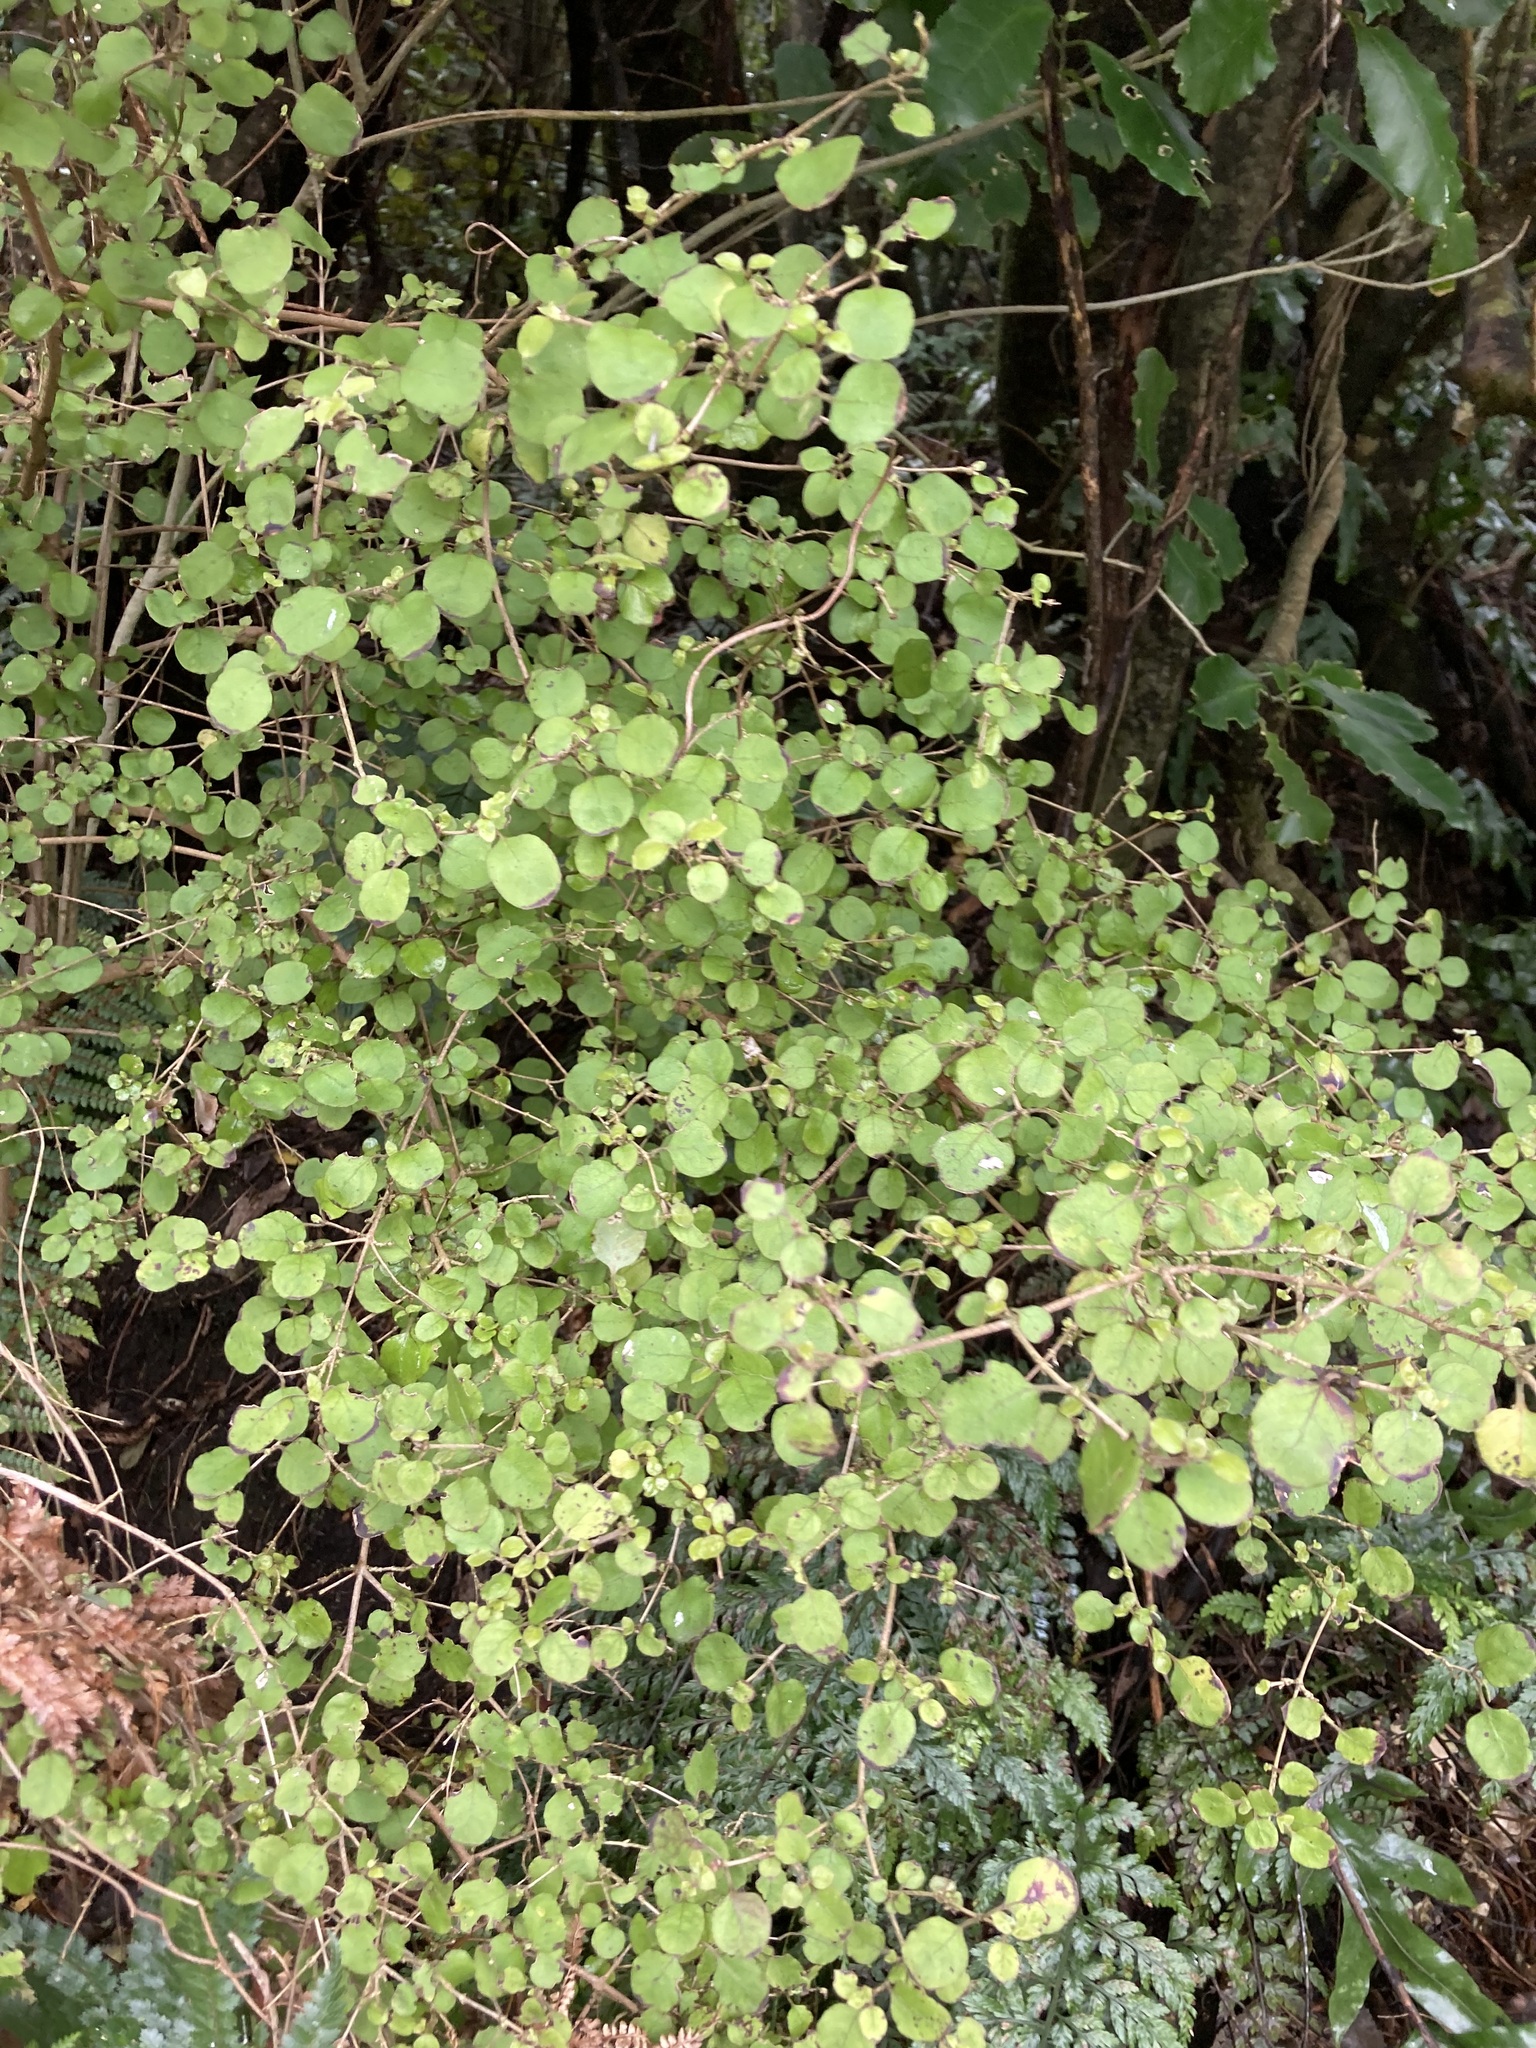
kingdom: Plantae
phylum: Tracheophyta
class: Magnoliopsida
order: Gentianales
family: Rubiaceae
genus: Coprosma
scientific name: Coprosma rotundifolia
